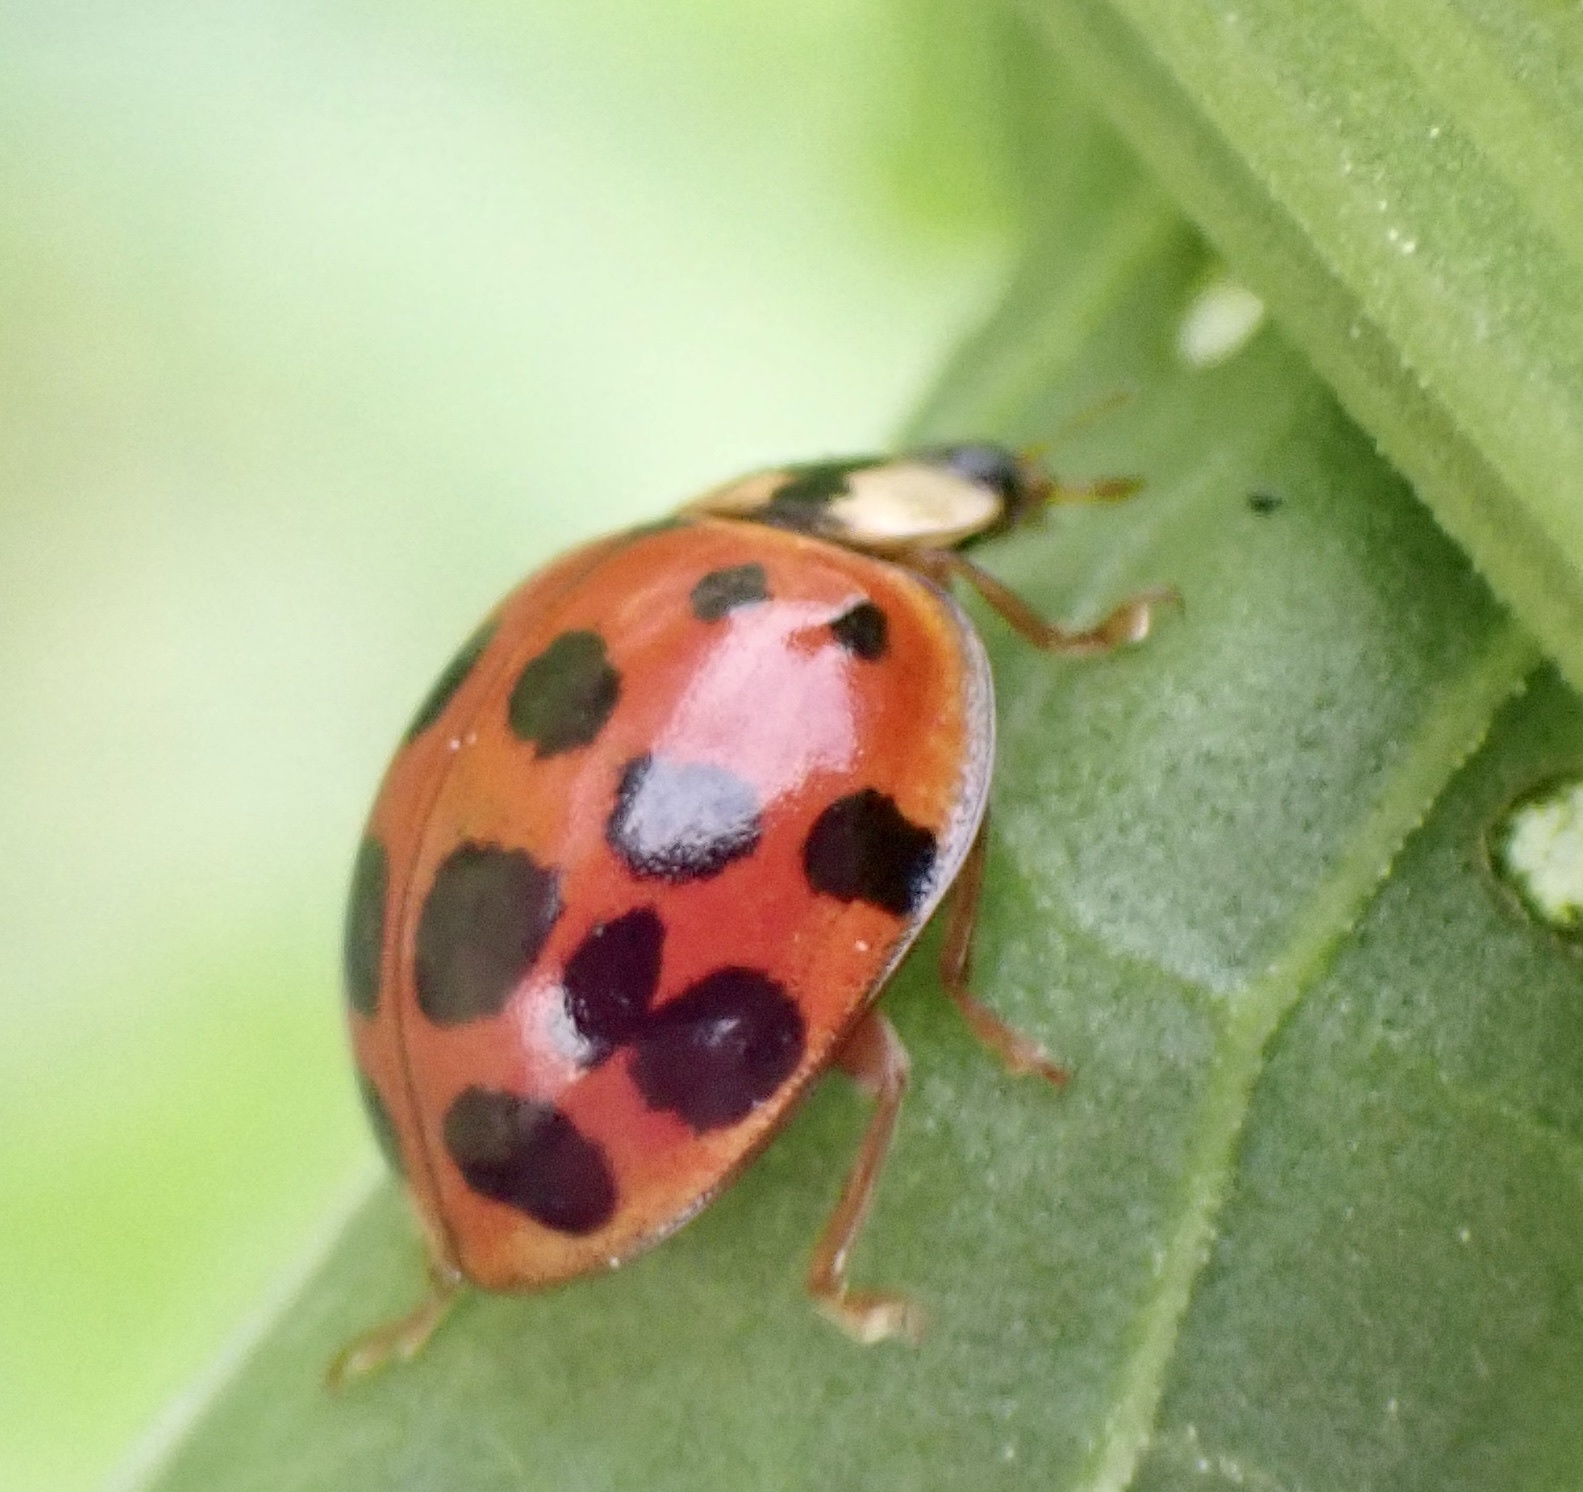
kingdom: Animalia
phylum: Arthropoda
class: Insecta
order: Coleoptera
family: Coccinellidae
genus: Harmonia
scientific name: Harmonia axyridis
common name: Harlequin ladybird
